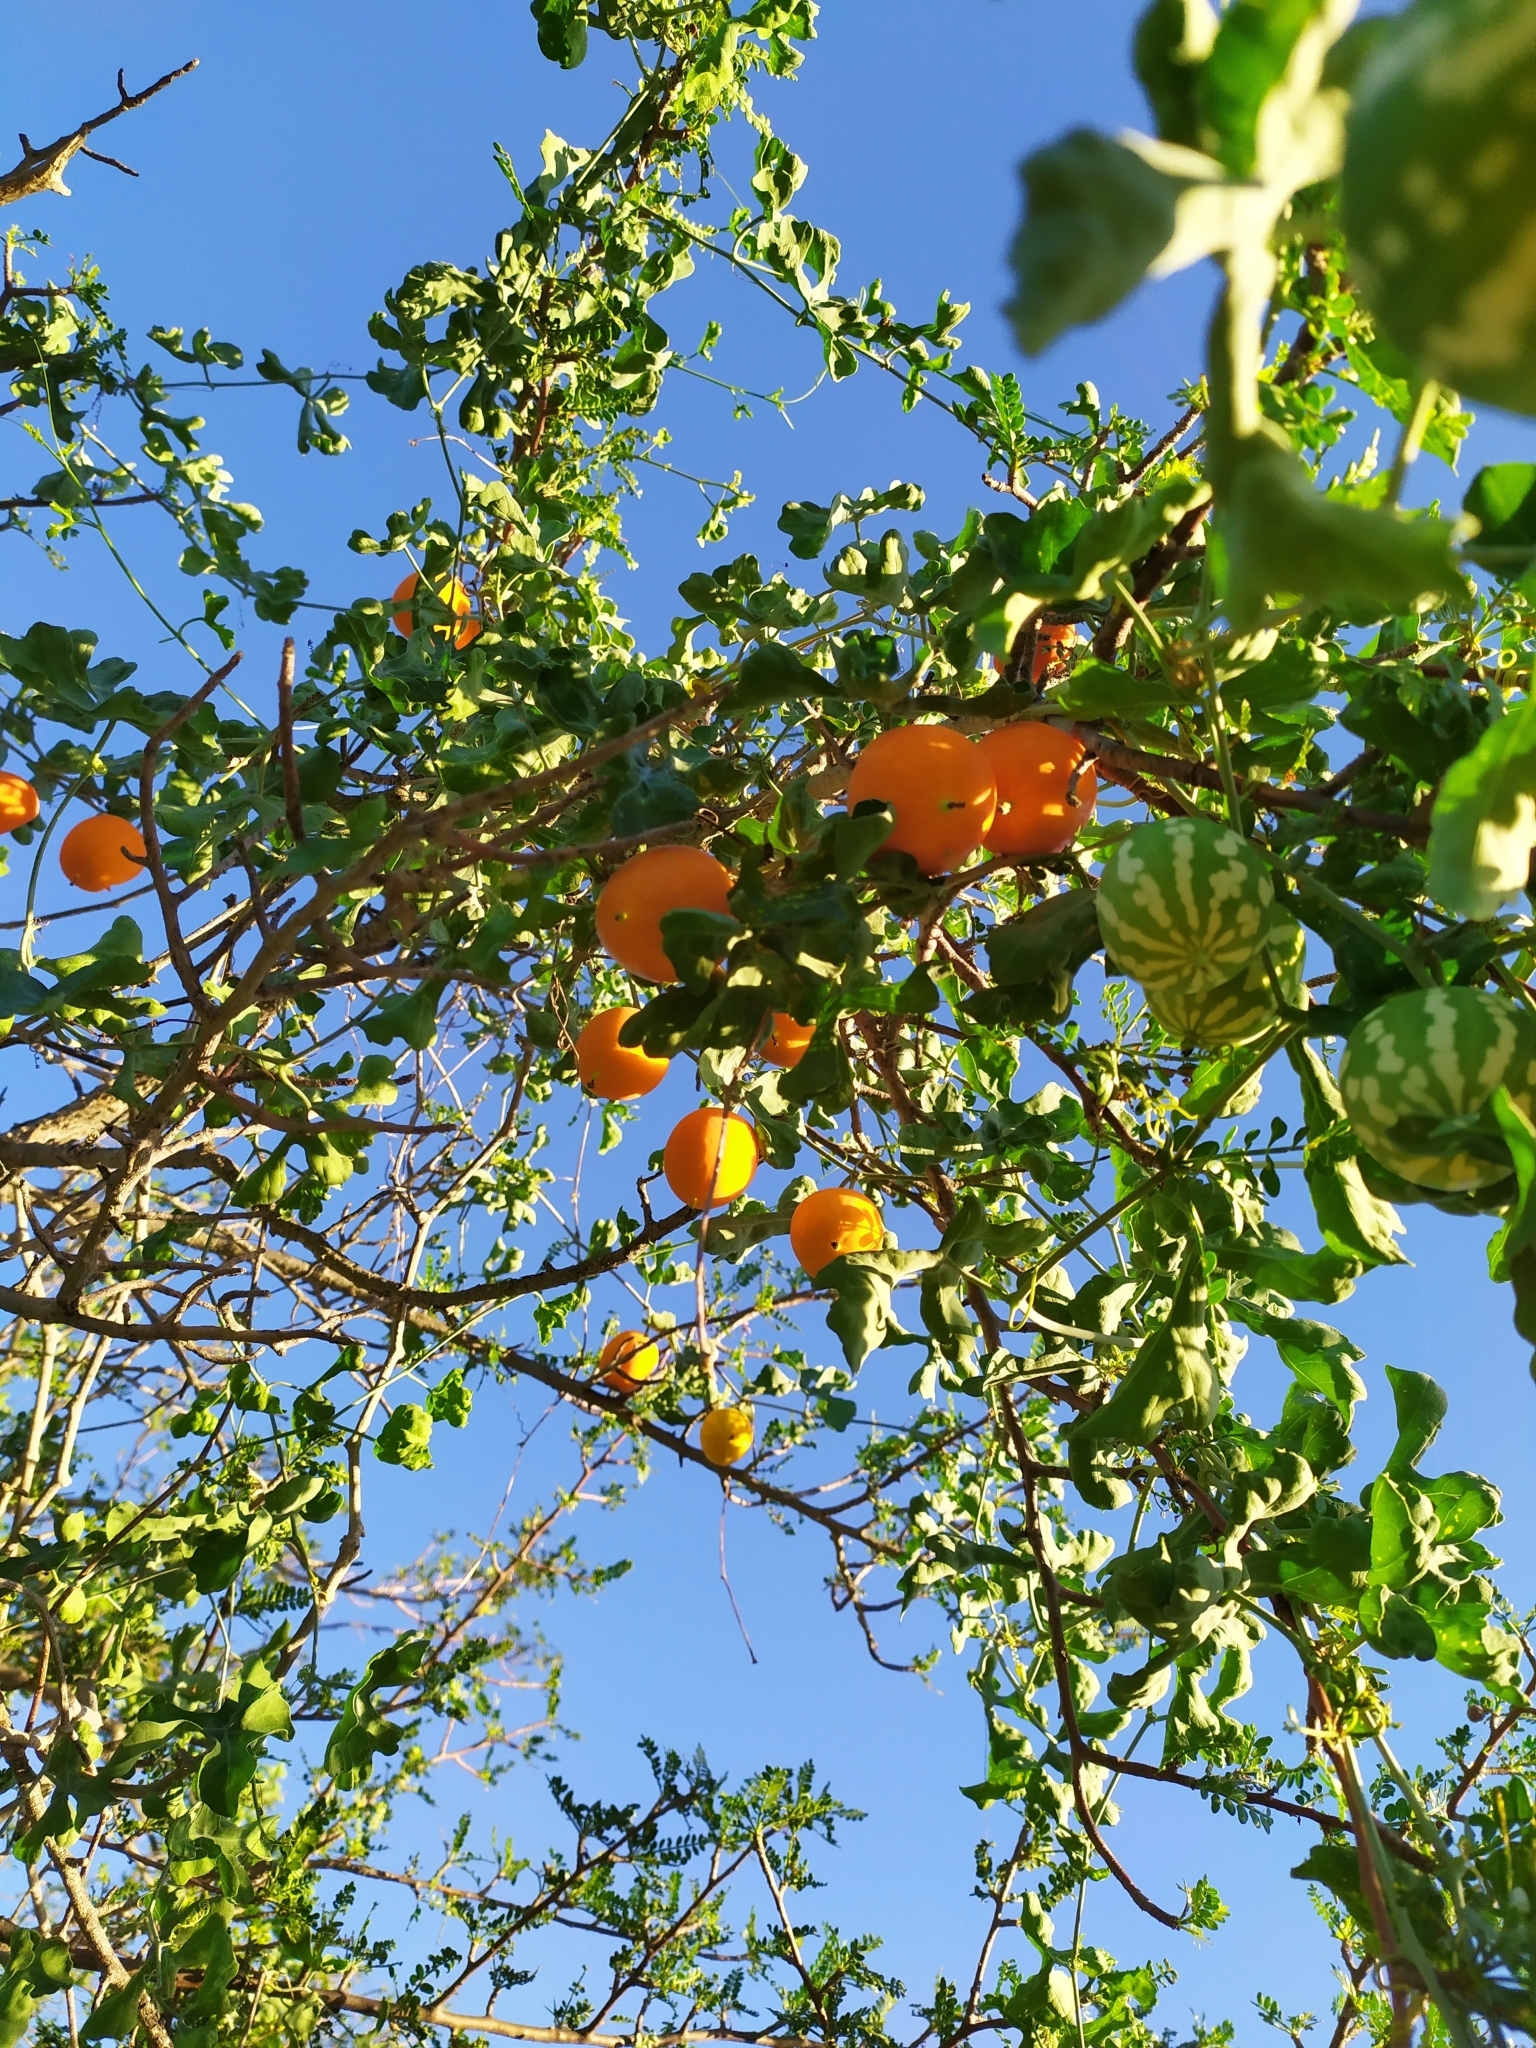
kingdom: Plantae
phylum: Tracheophyta
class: Magnoliopsida
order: Cucurbitales
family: Cucurbitaceae
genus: Ibervillea
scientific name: Ibervillea sonorae
